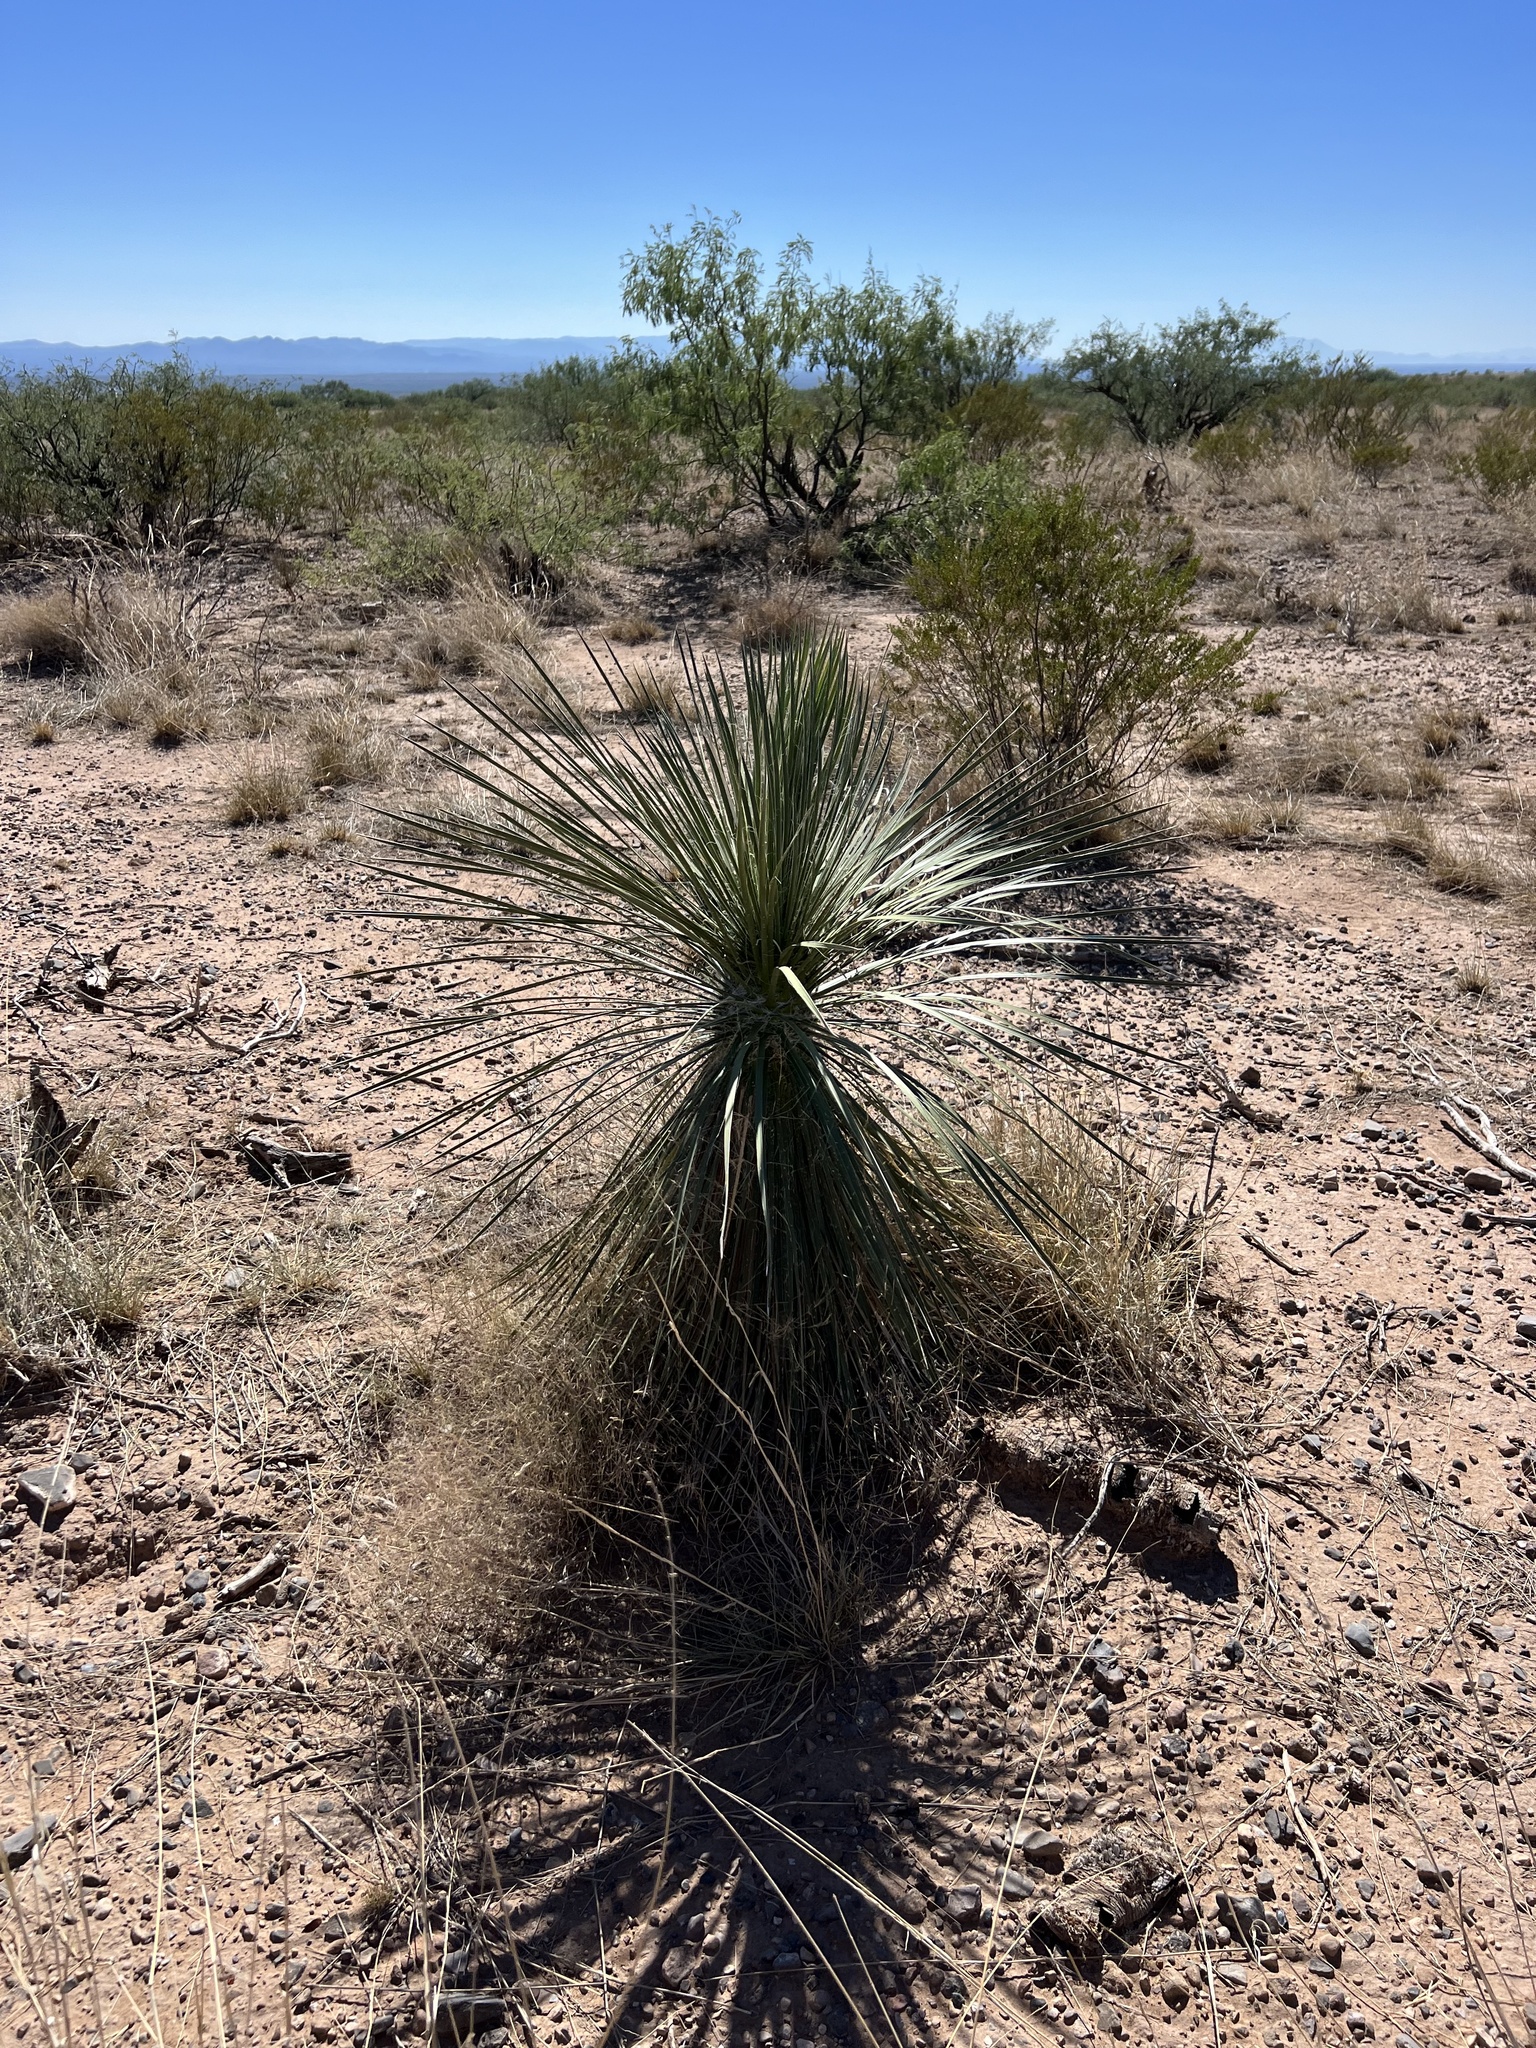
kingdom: Plantae
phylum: Tracheophyta
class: Liliopsida
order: Asparagales
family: Asparagaceae
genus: Yucca
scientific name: Yucca elata
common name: Palmella
